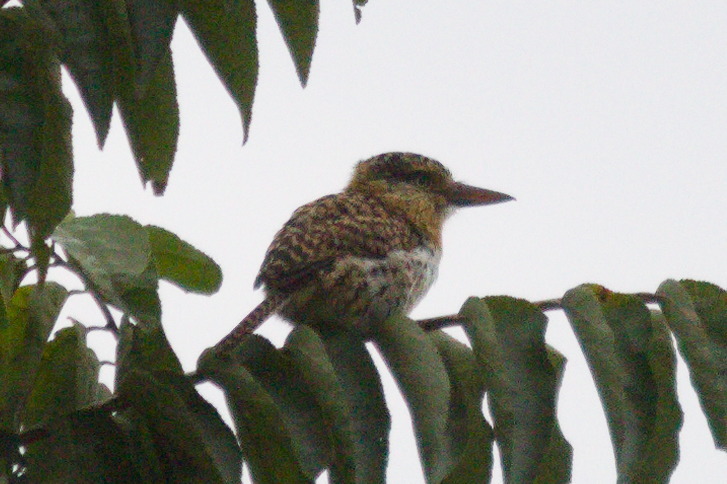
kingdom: Animalia
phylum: Chordata
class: Aves
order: Piciformes
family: Bucconidae
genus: Nystalus
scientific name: Nystalus striatipectus
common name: Chaco puffbird
